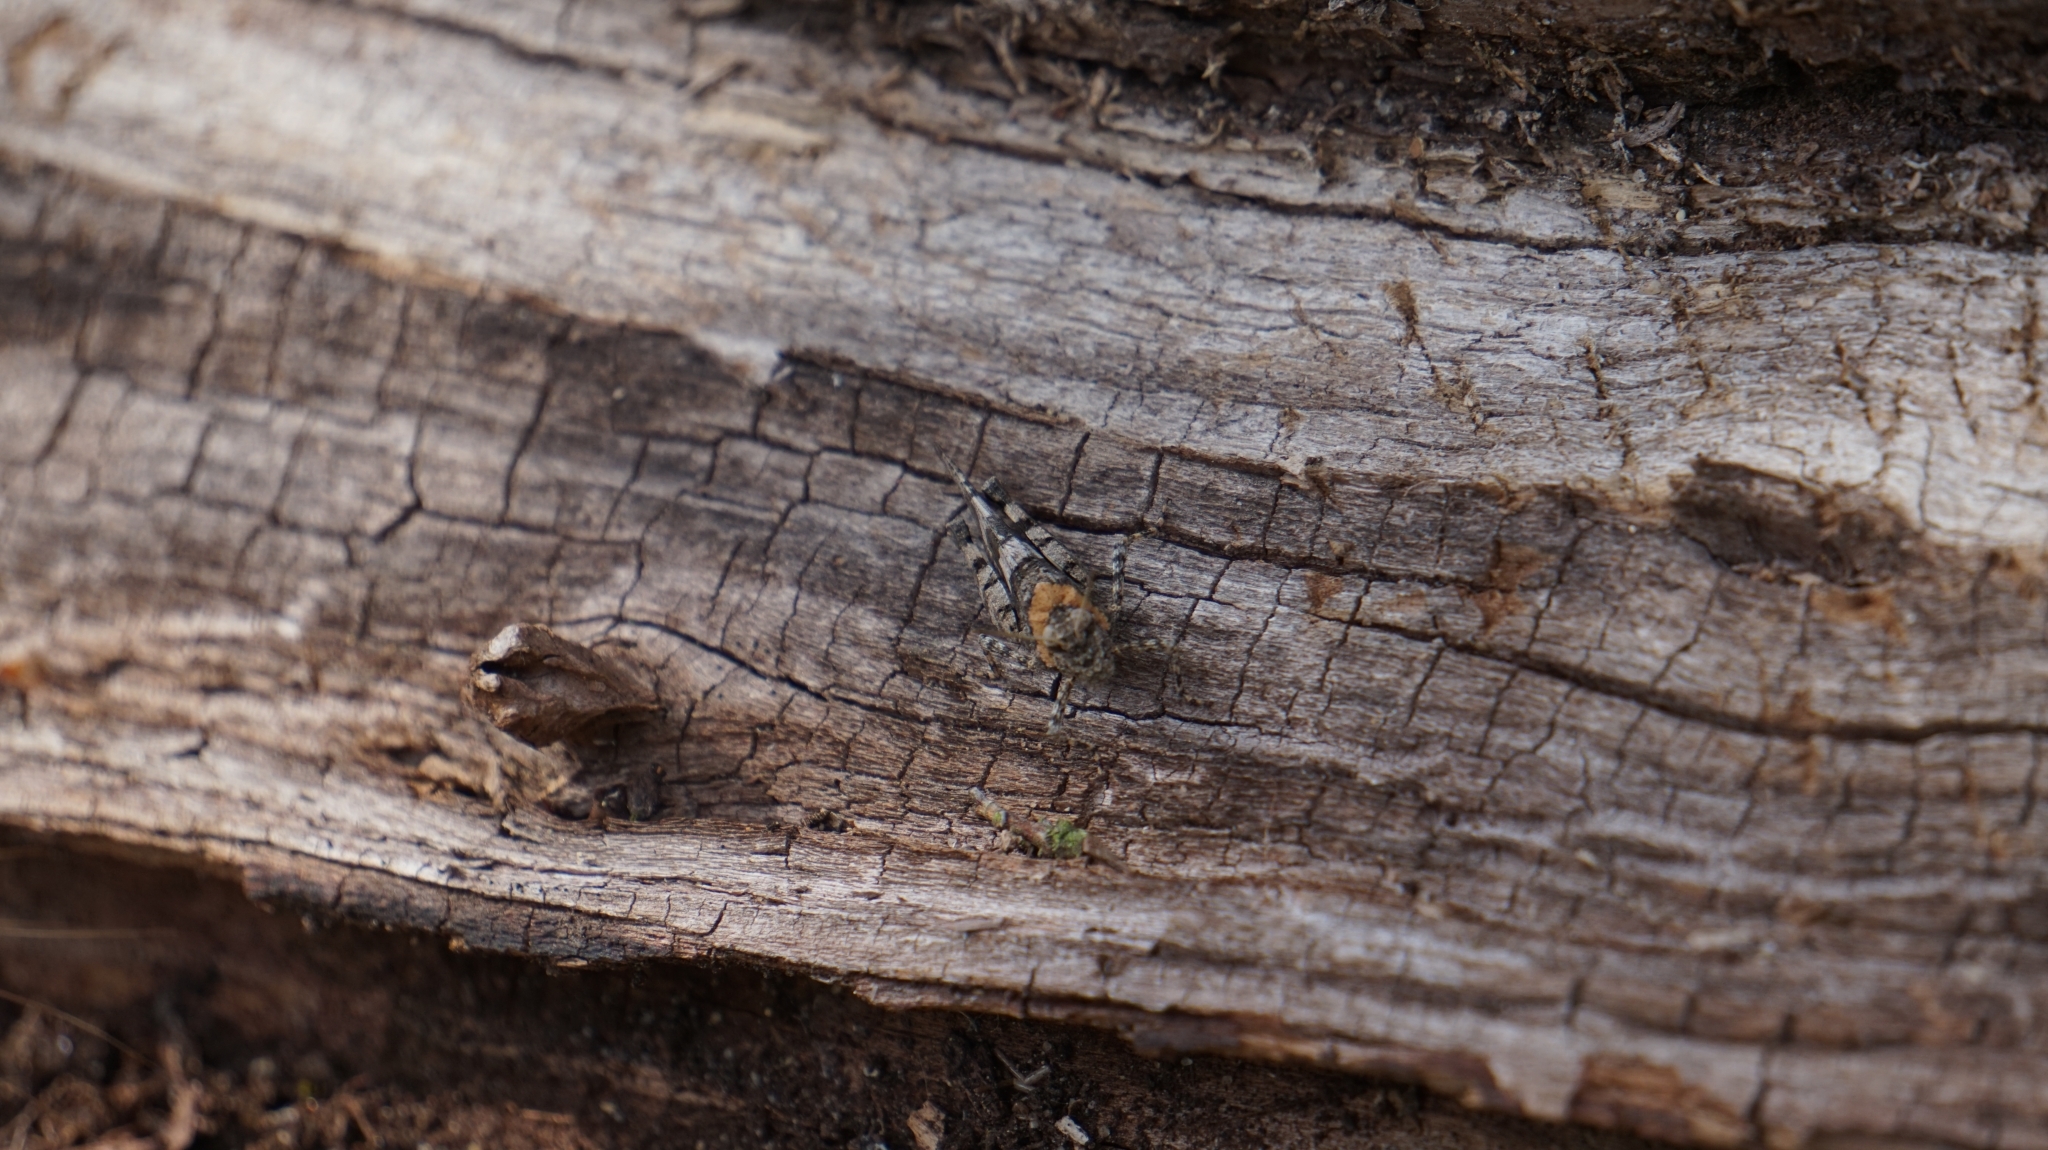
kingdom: Animalia
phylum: Arthropoda
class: Insecta
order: Orthoptera
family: Acrididae
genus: Oedipoda
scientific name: Oedipoda caerulescens
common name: Blue-winged grasshopper
